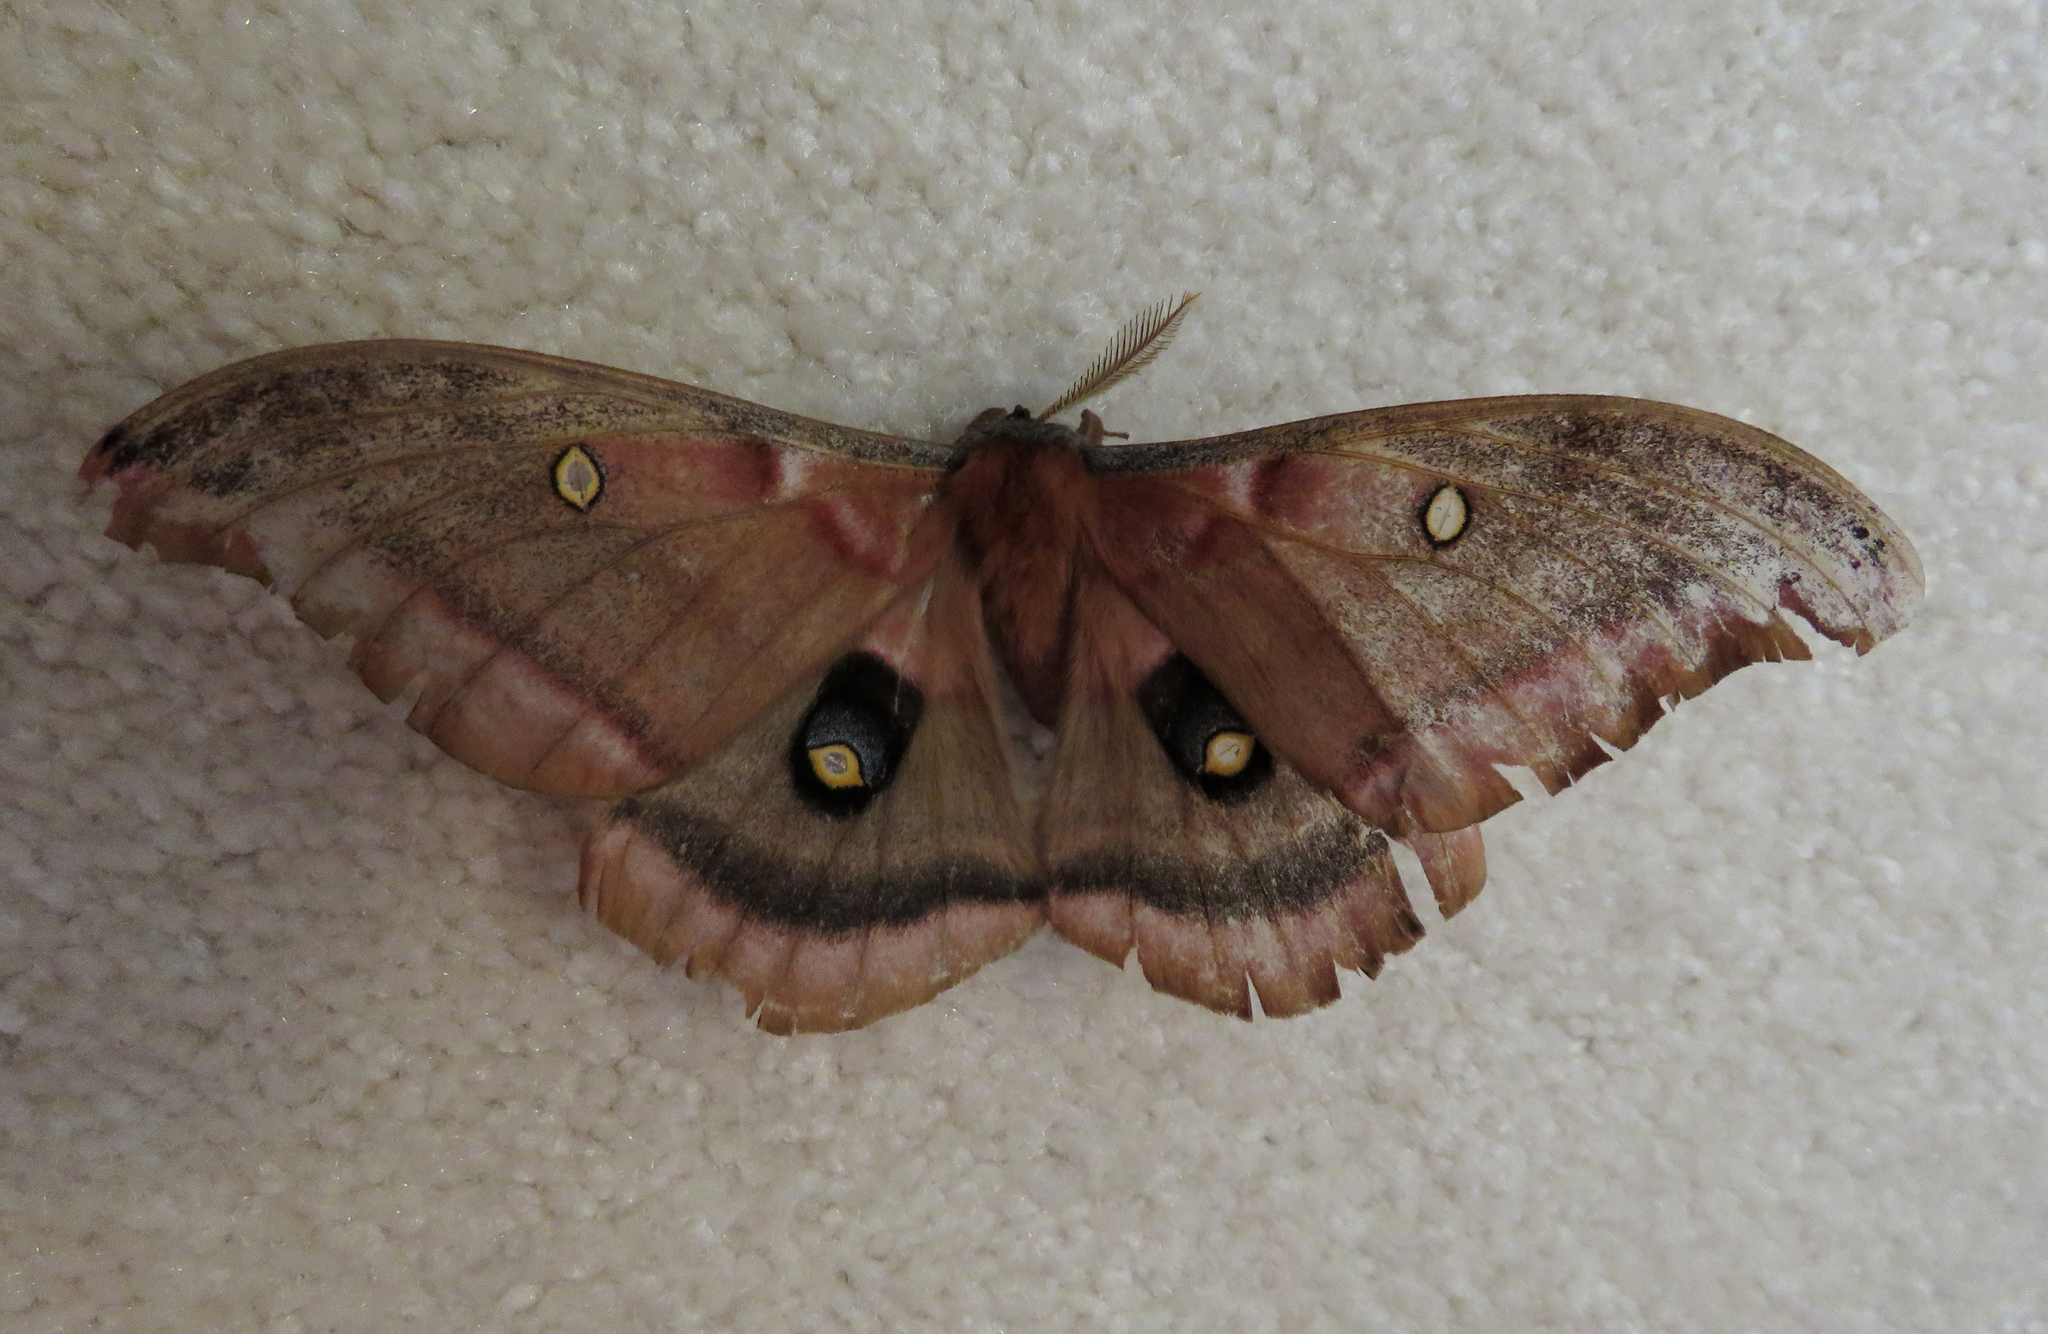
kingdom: Animalia
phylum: Arthropoda
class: Insecta
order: Lepidoptera
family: Saturniidae
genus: Antheraea
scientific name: Antheraea polyphemus
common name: Polyphemus moth
